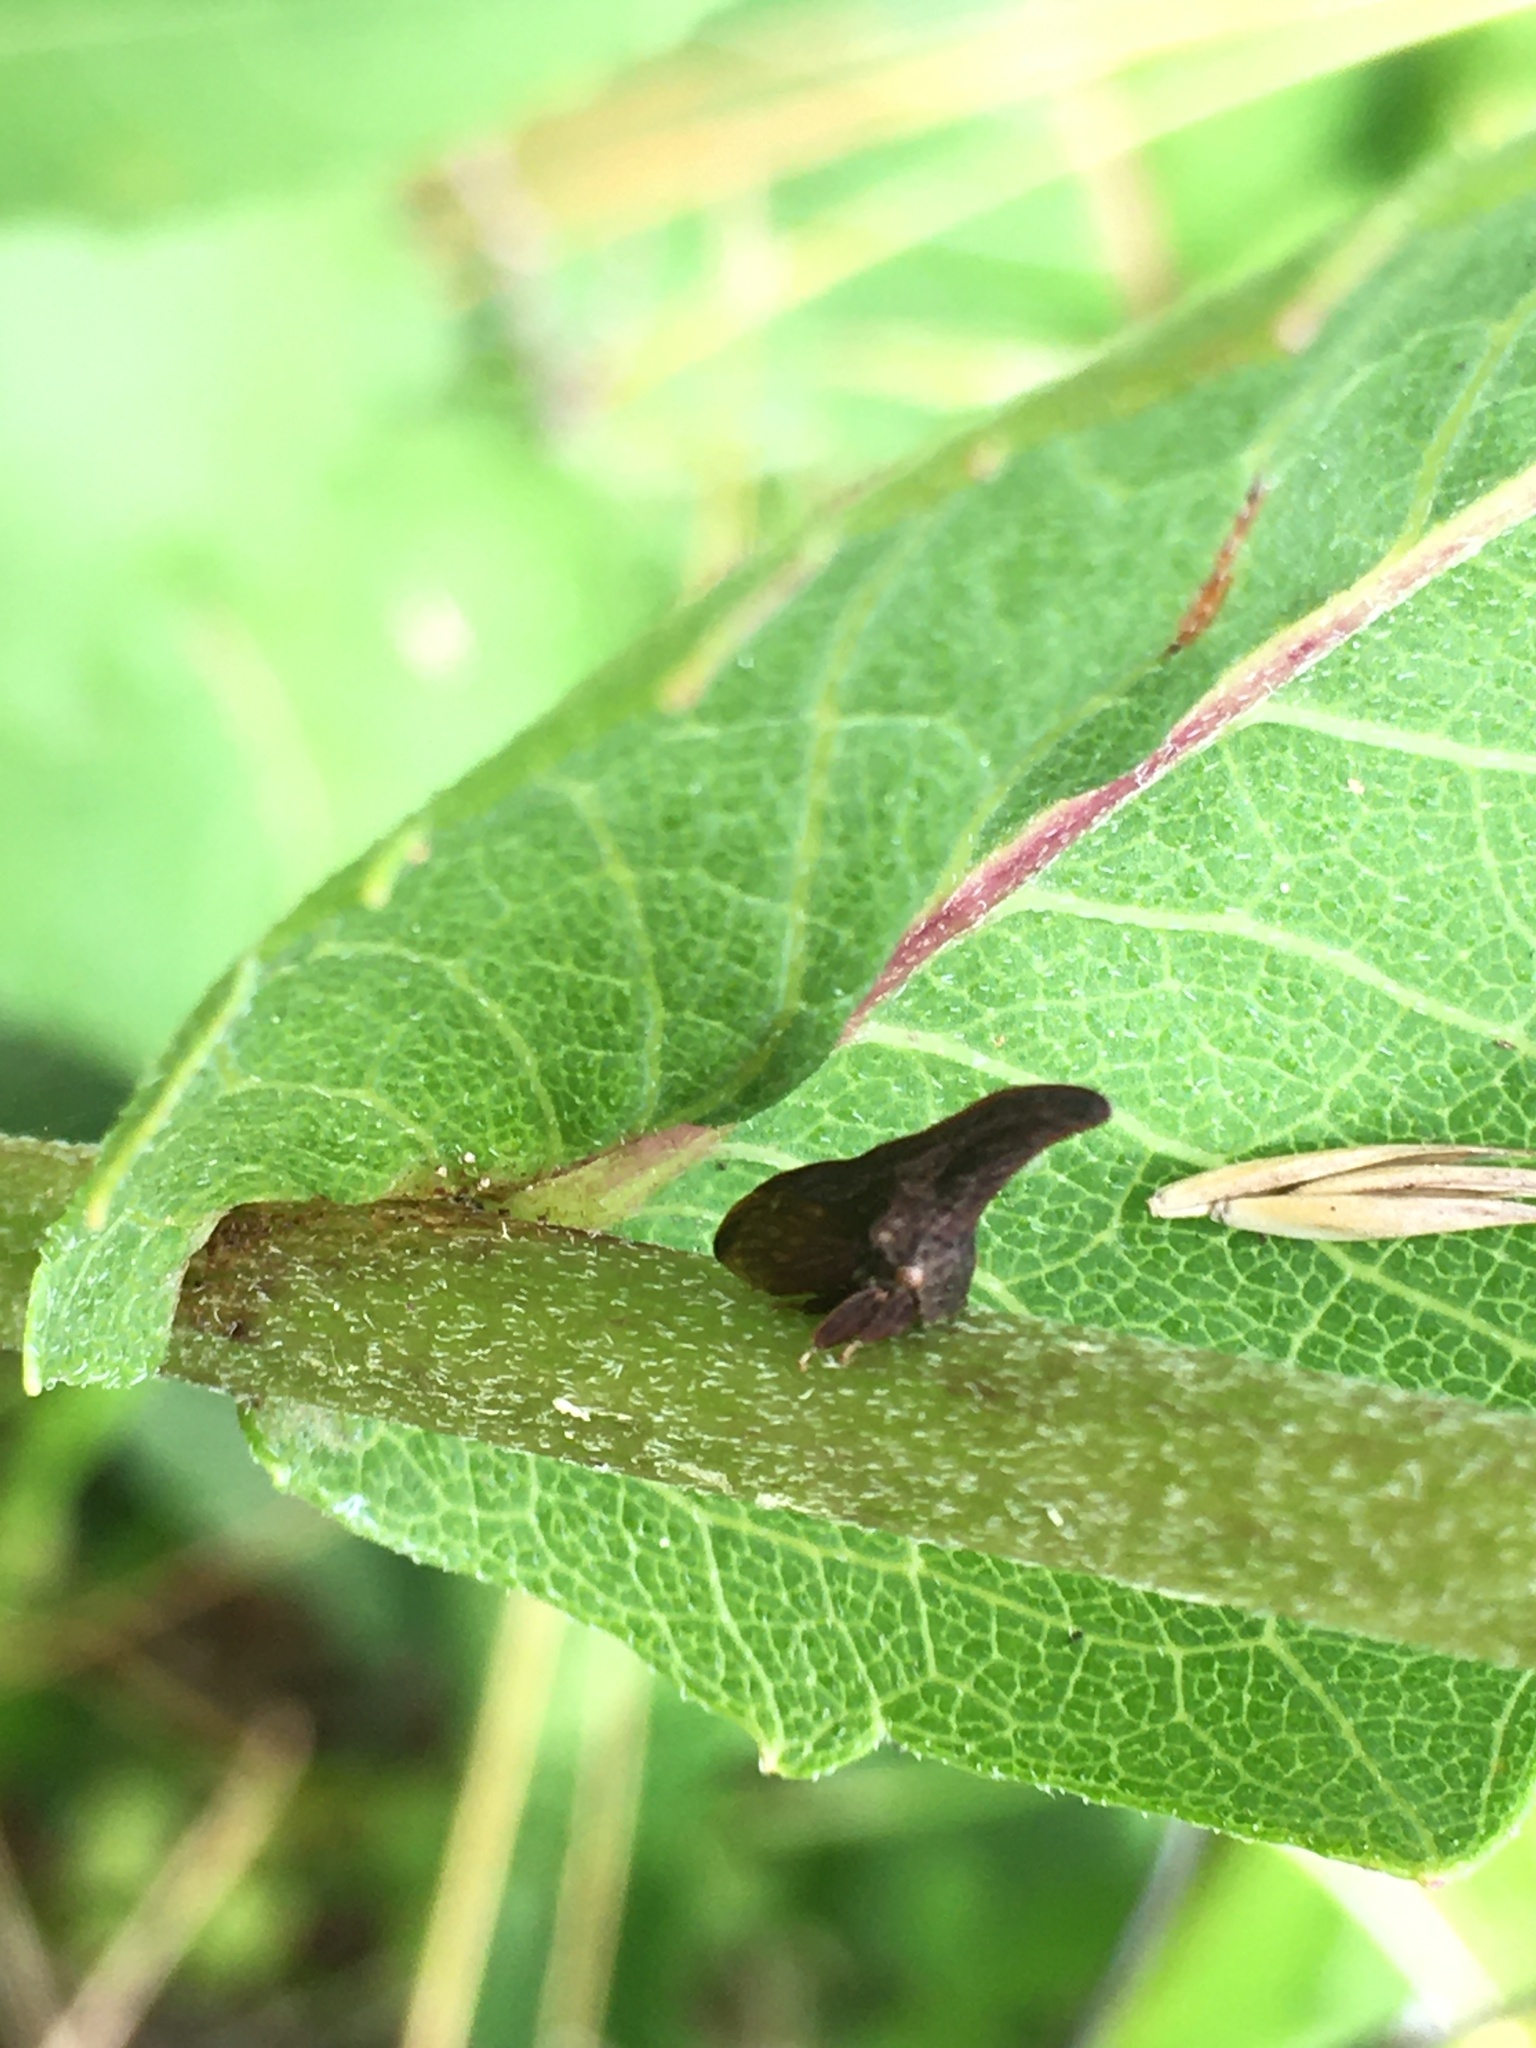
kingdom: Animalia
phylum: Arthropoda
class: Insecta
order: Hemiptera
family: Membracidae
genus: Enchenopa
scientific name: Enchenopa latipes
